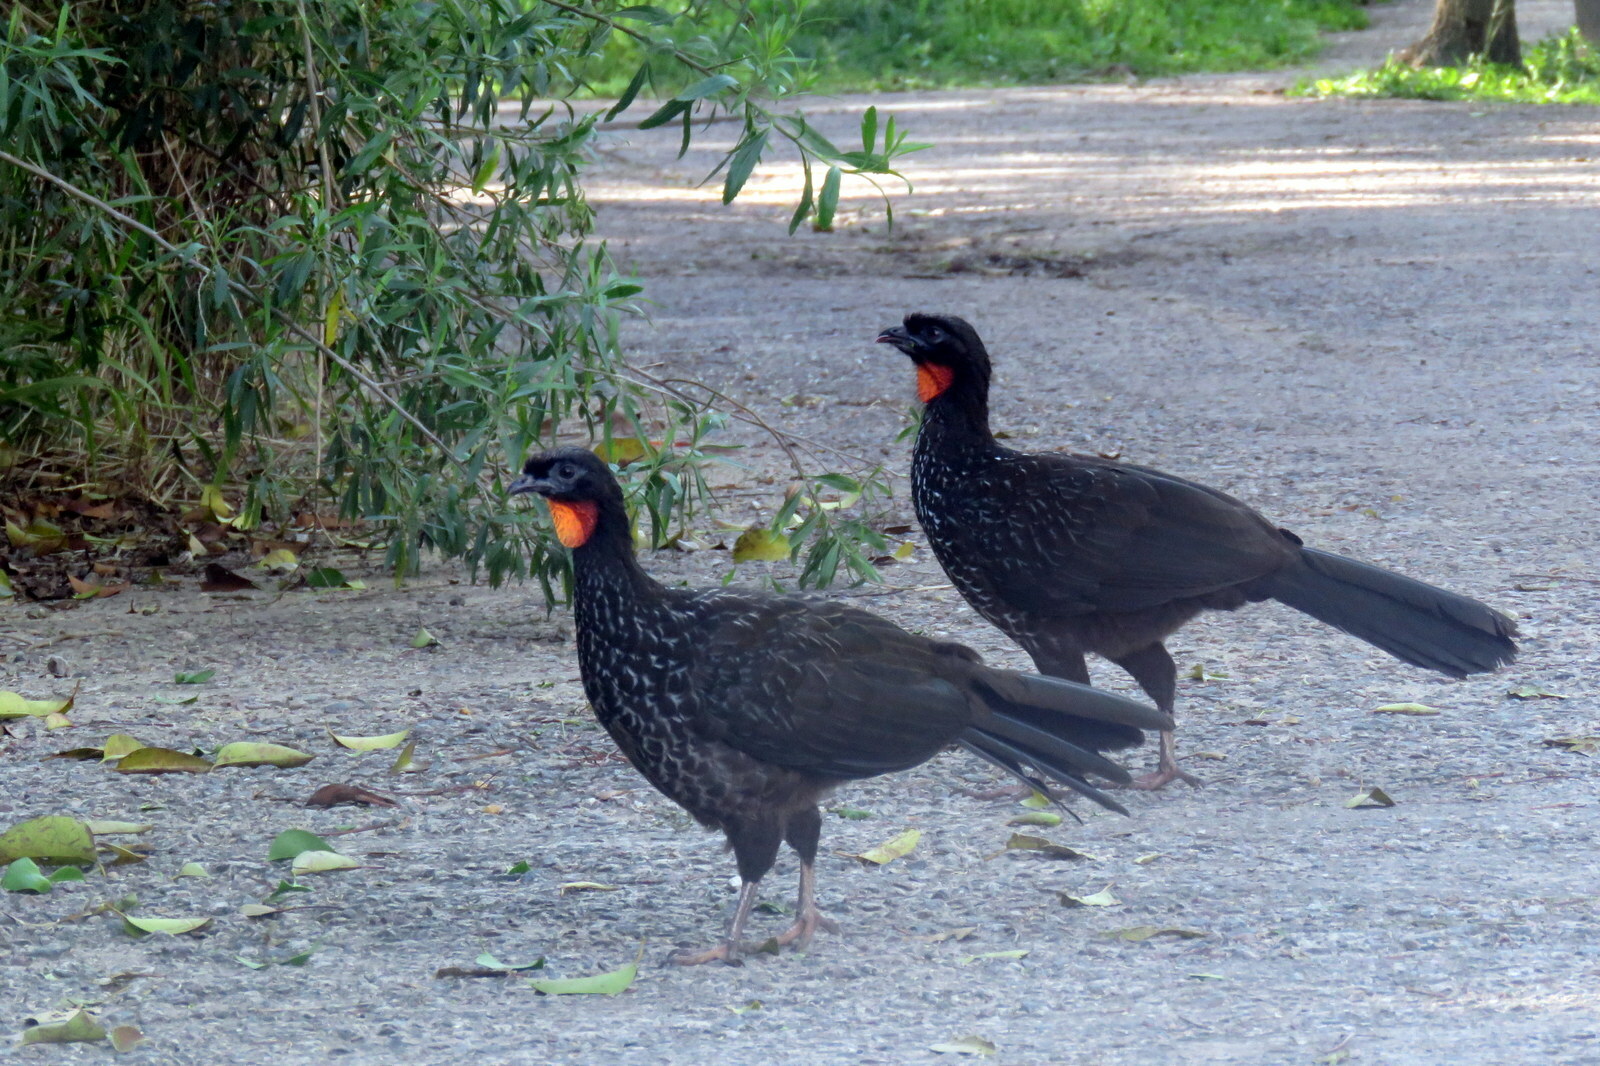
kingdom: Animalia
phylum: Chordata
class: Aves
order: Galliformes
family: Cracidae
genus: Penelope
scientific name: Penelope obscura
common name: Dusky-legged guan
